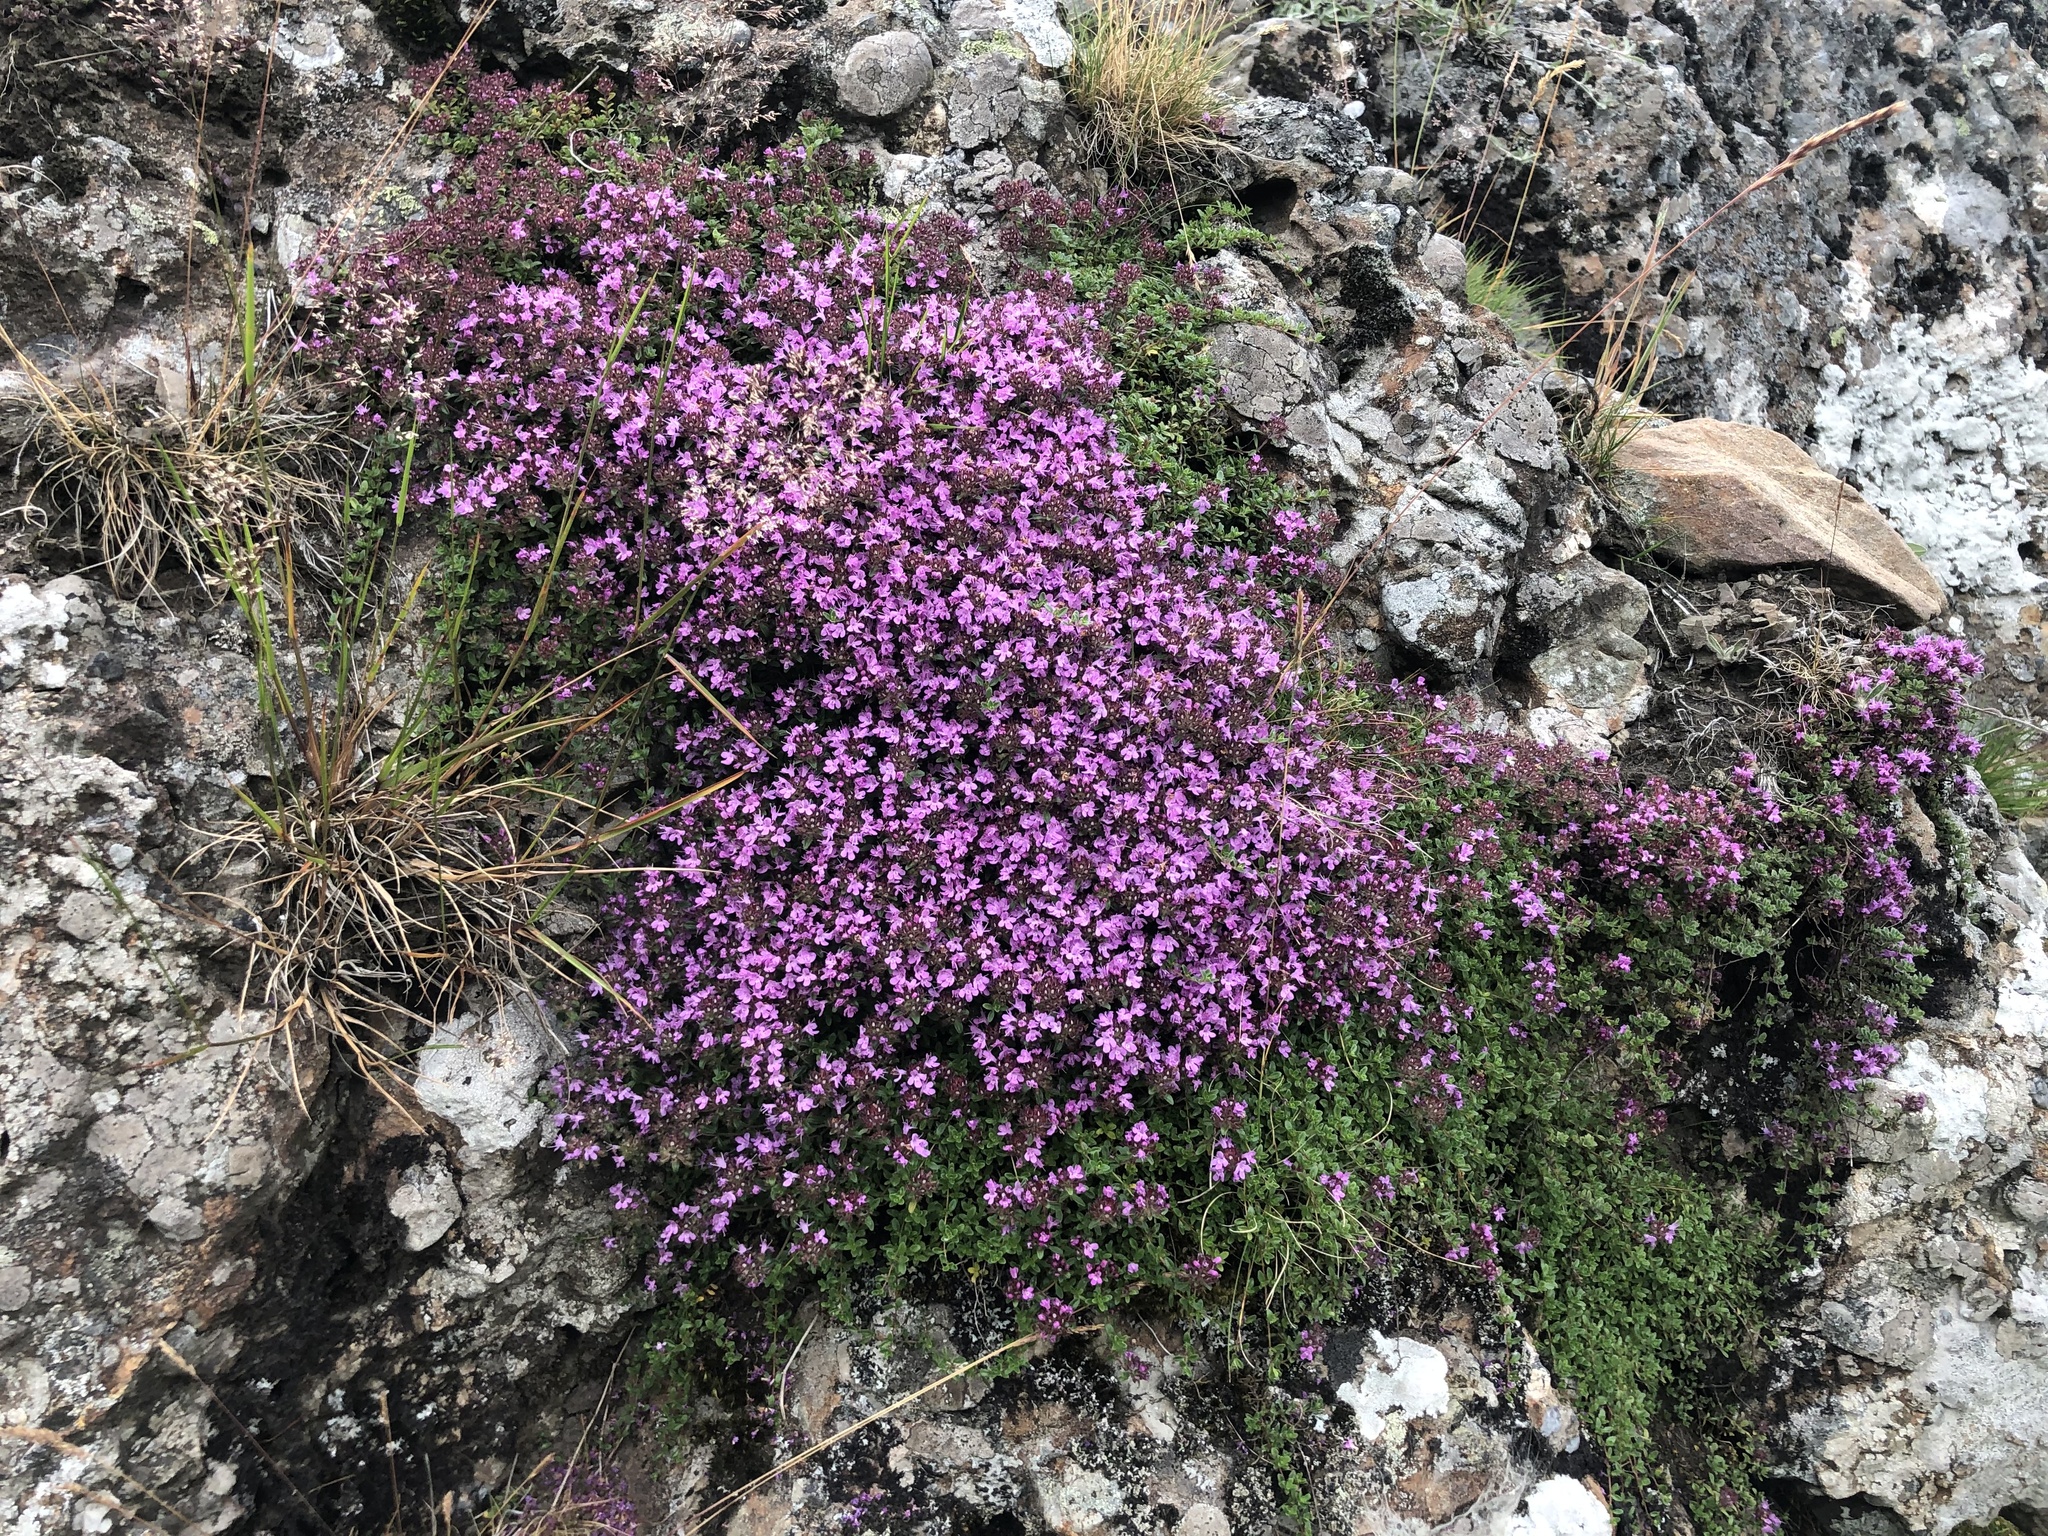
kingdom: Plantae
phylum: Tracheophyta
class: Magnoliopsida
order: Lamiales
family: Lamiaceae
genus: Thymus
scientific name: Thymus praecox
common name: Wild thyme
